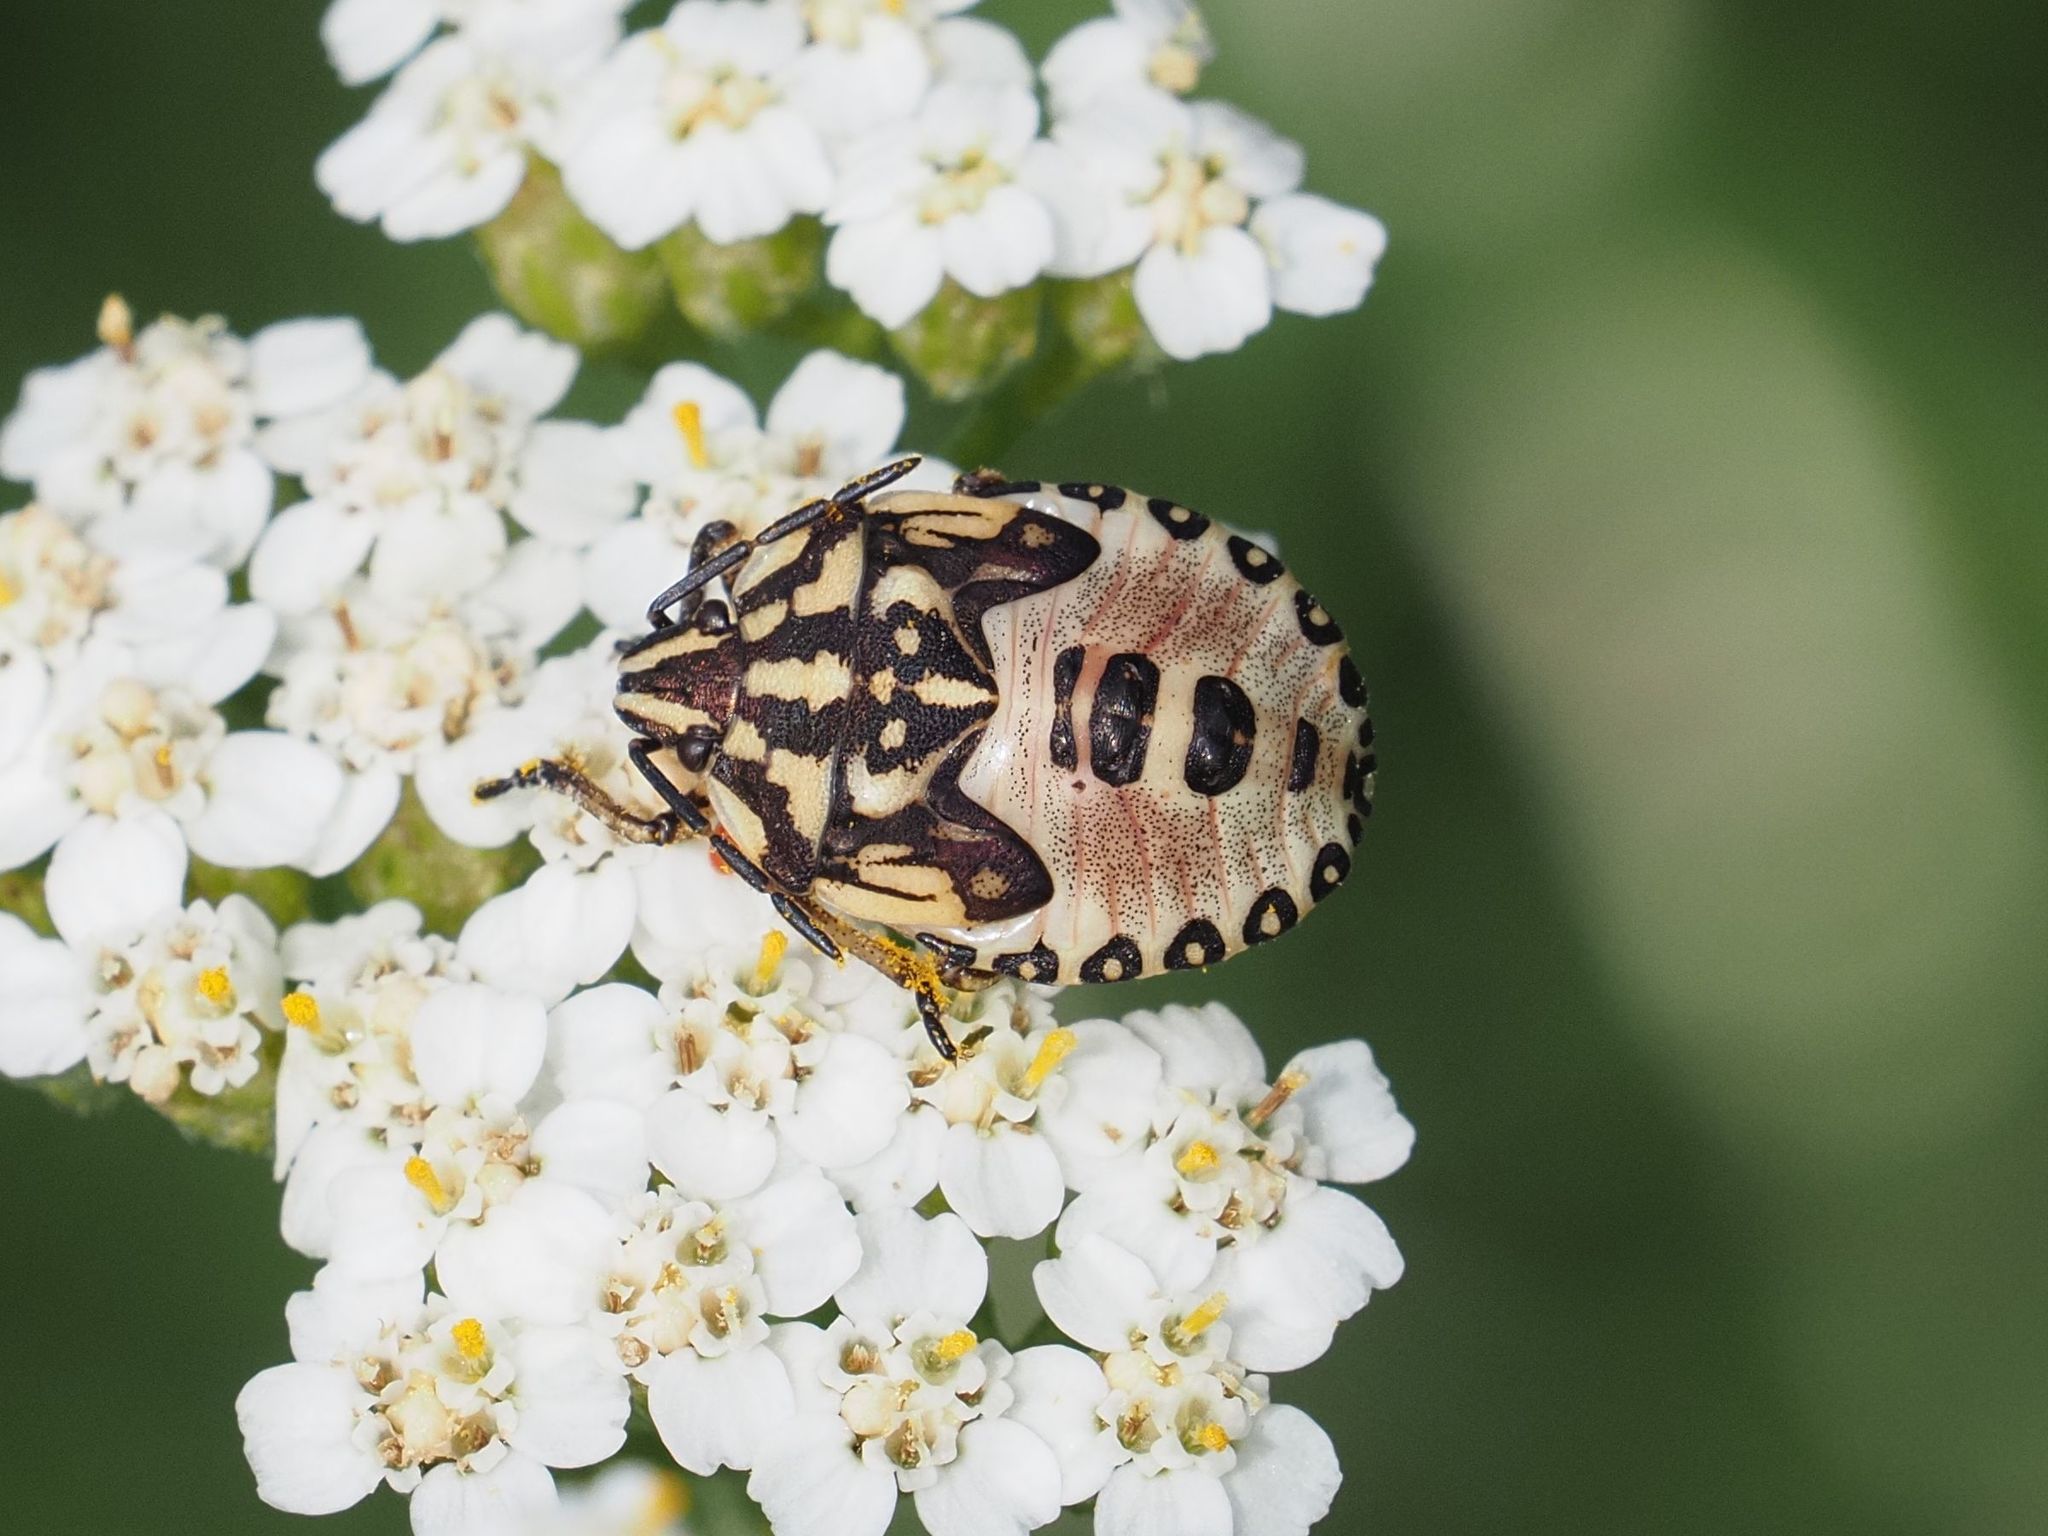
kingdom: Animalia
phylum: Arthropoda
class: Insecta
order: Hemiptera
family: Pentatomidae
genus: Carpocoris
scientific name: Carpocoris purpureipennis
